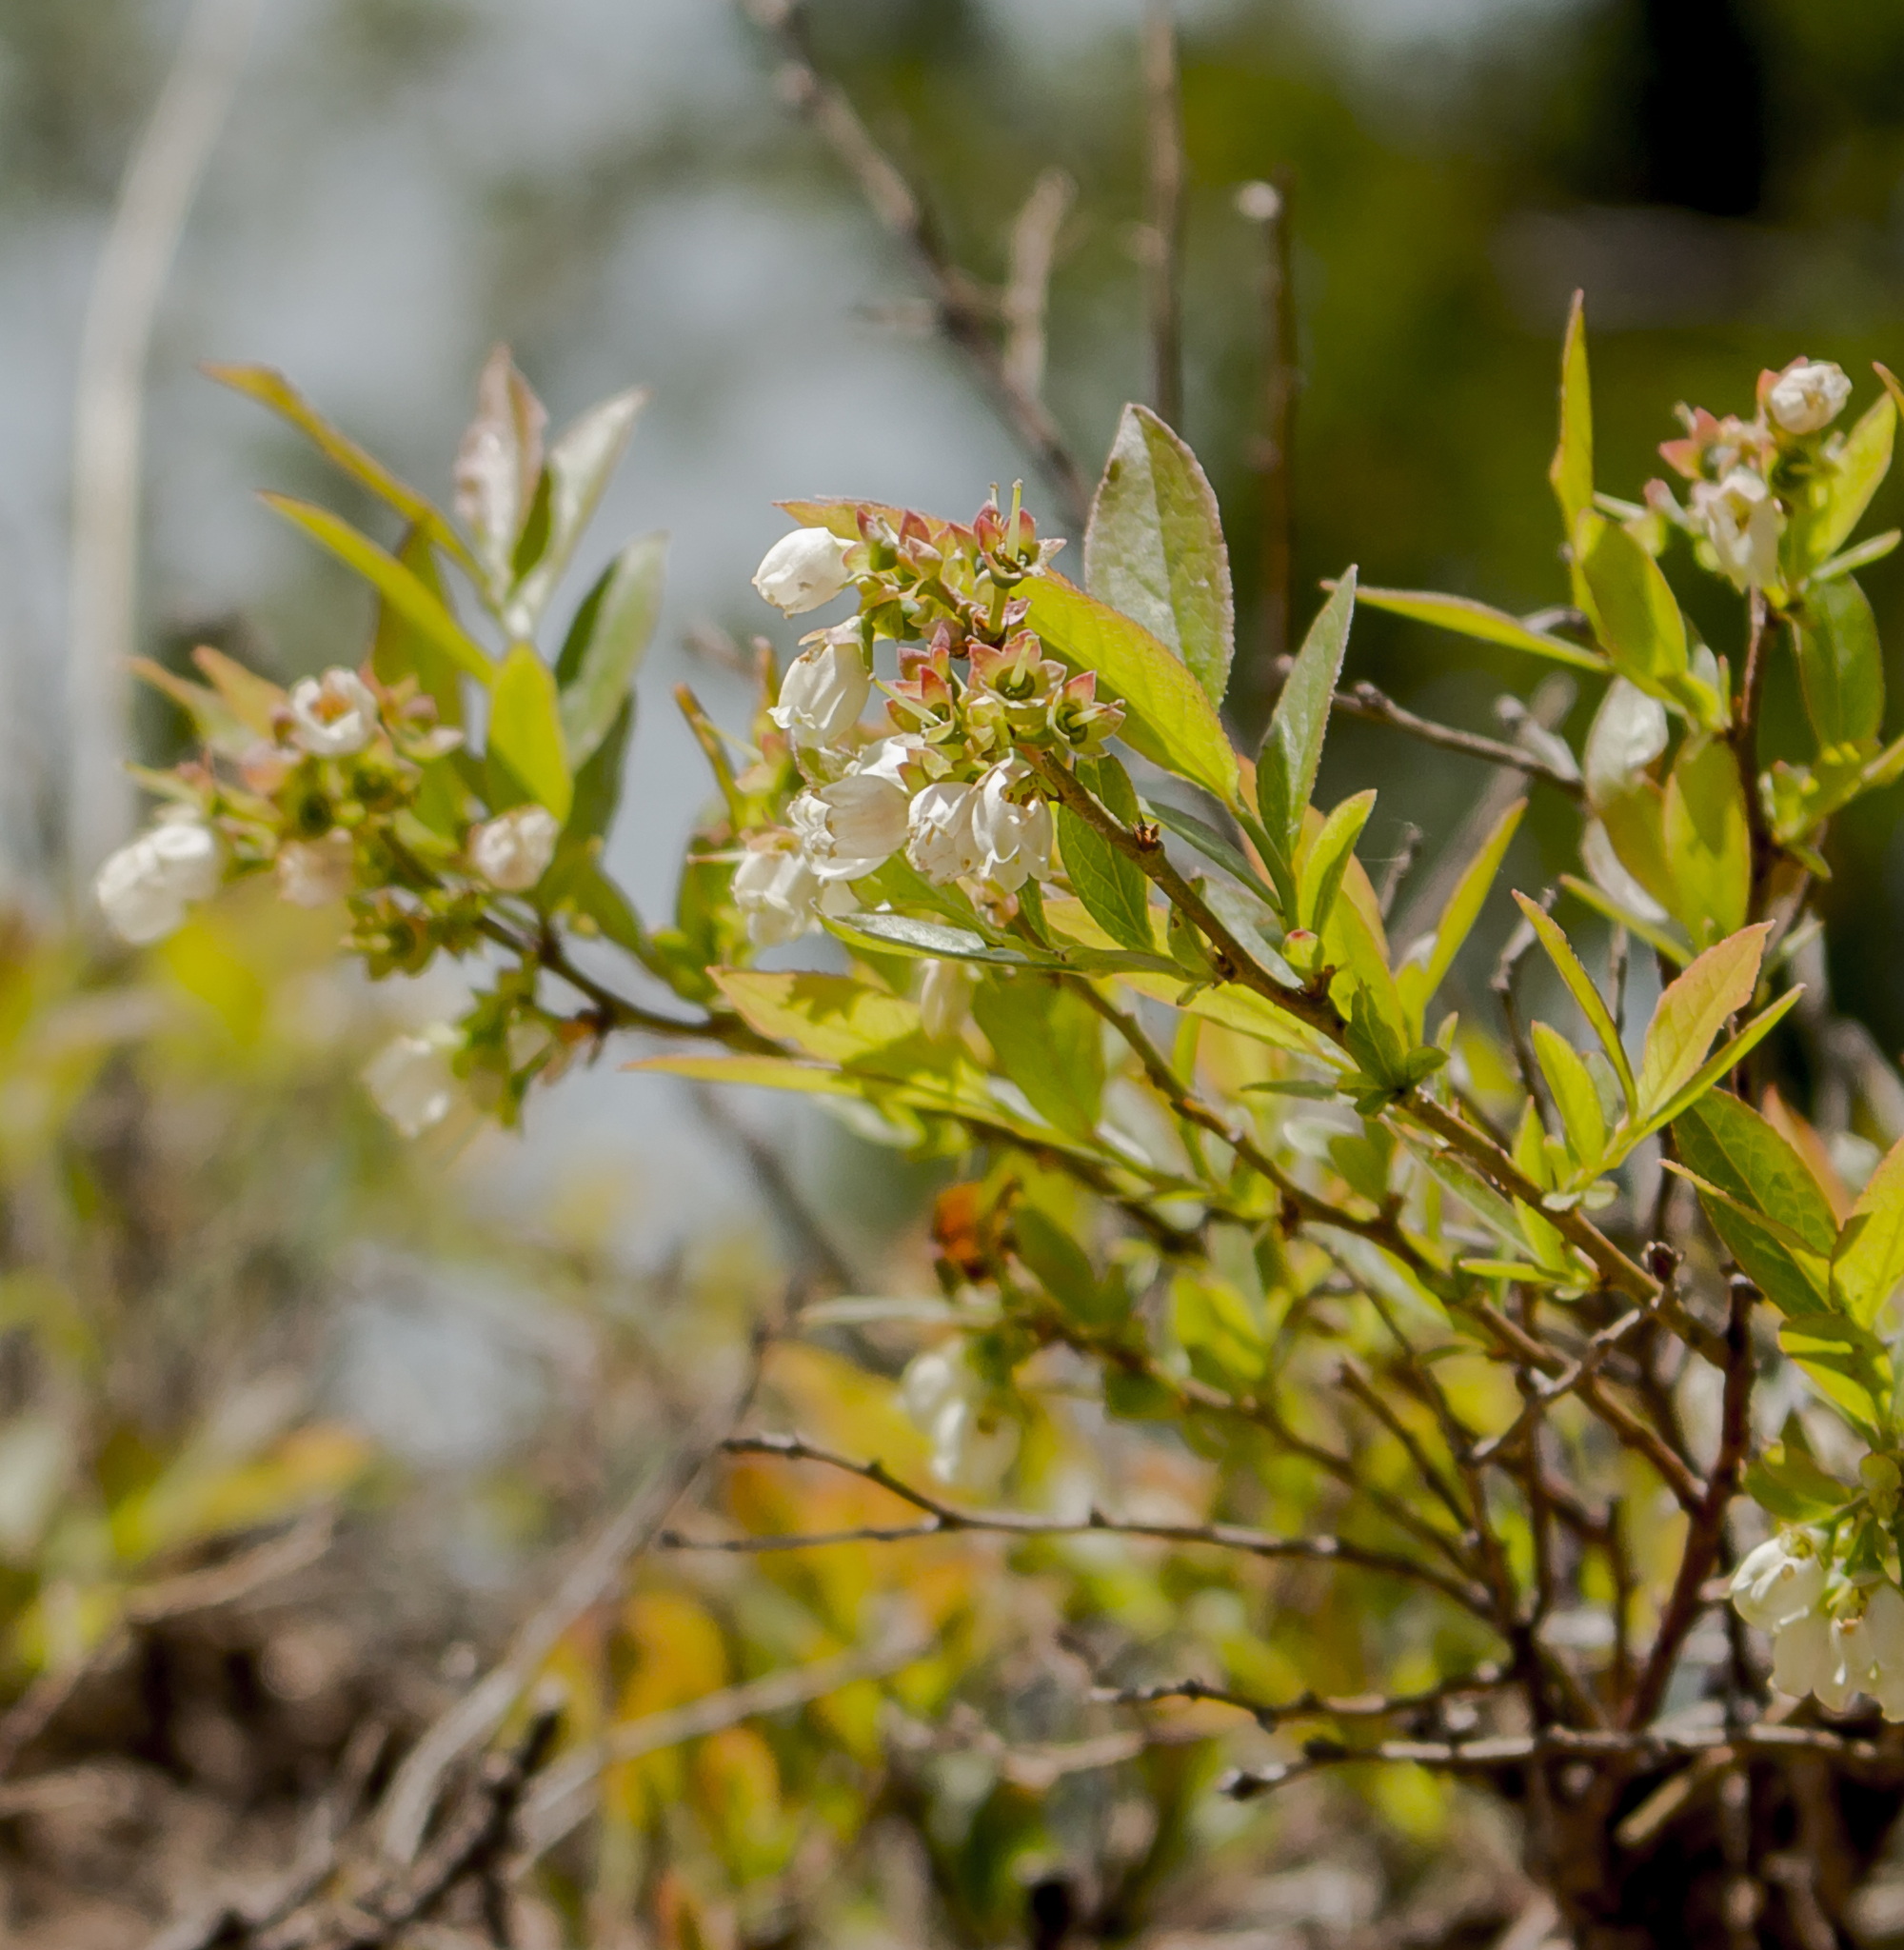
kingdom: Plantae
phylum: Tracheophyta
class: Magnoliopsida
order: Ericales
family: Ericaceae
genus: Vaccinium
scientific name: Vaccinium angustifolium
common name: Early lowbush blueberry
